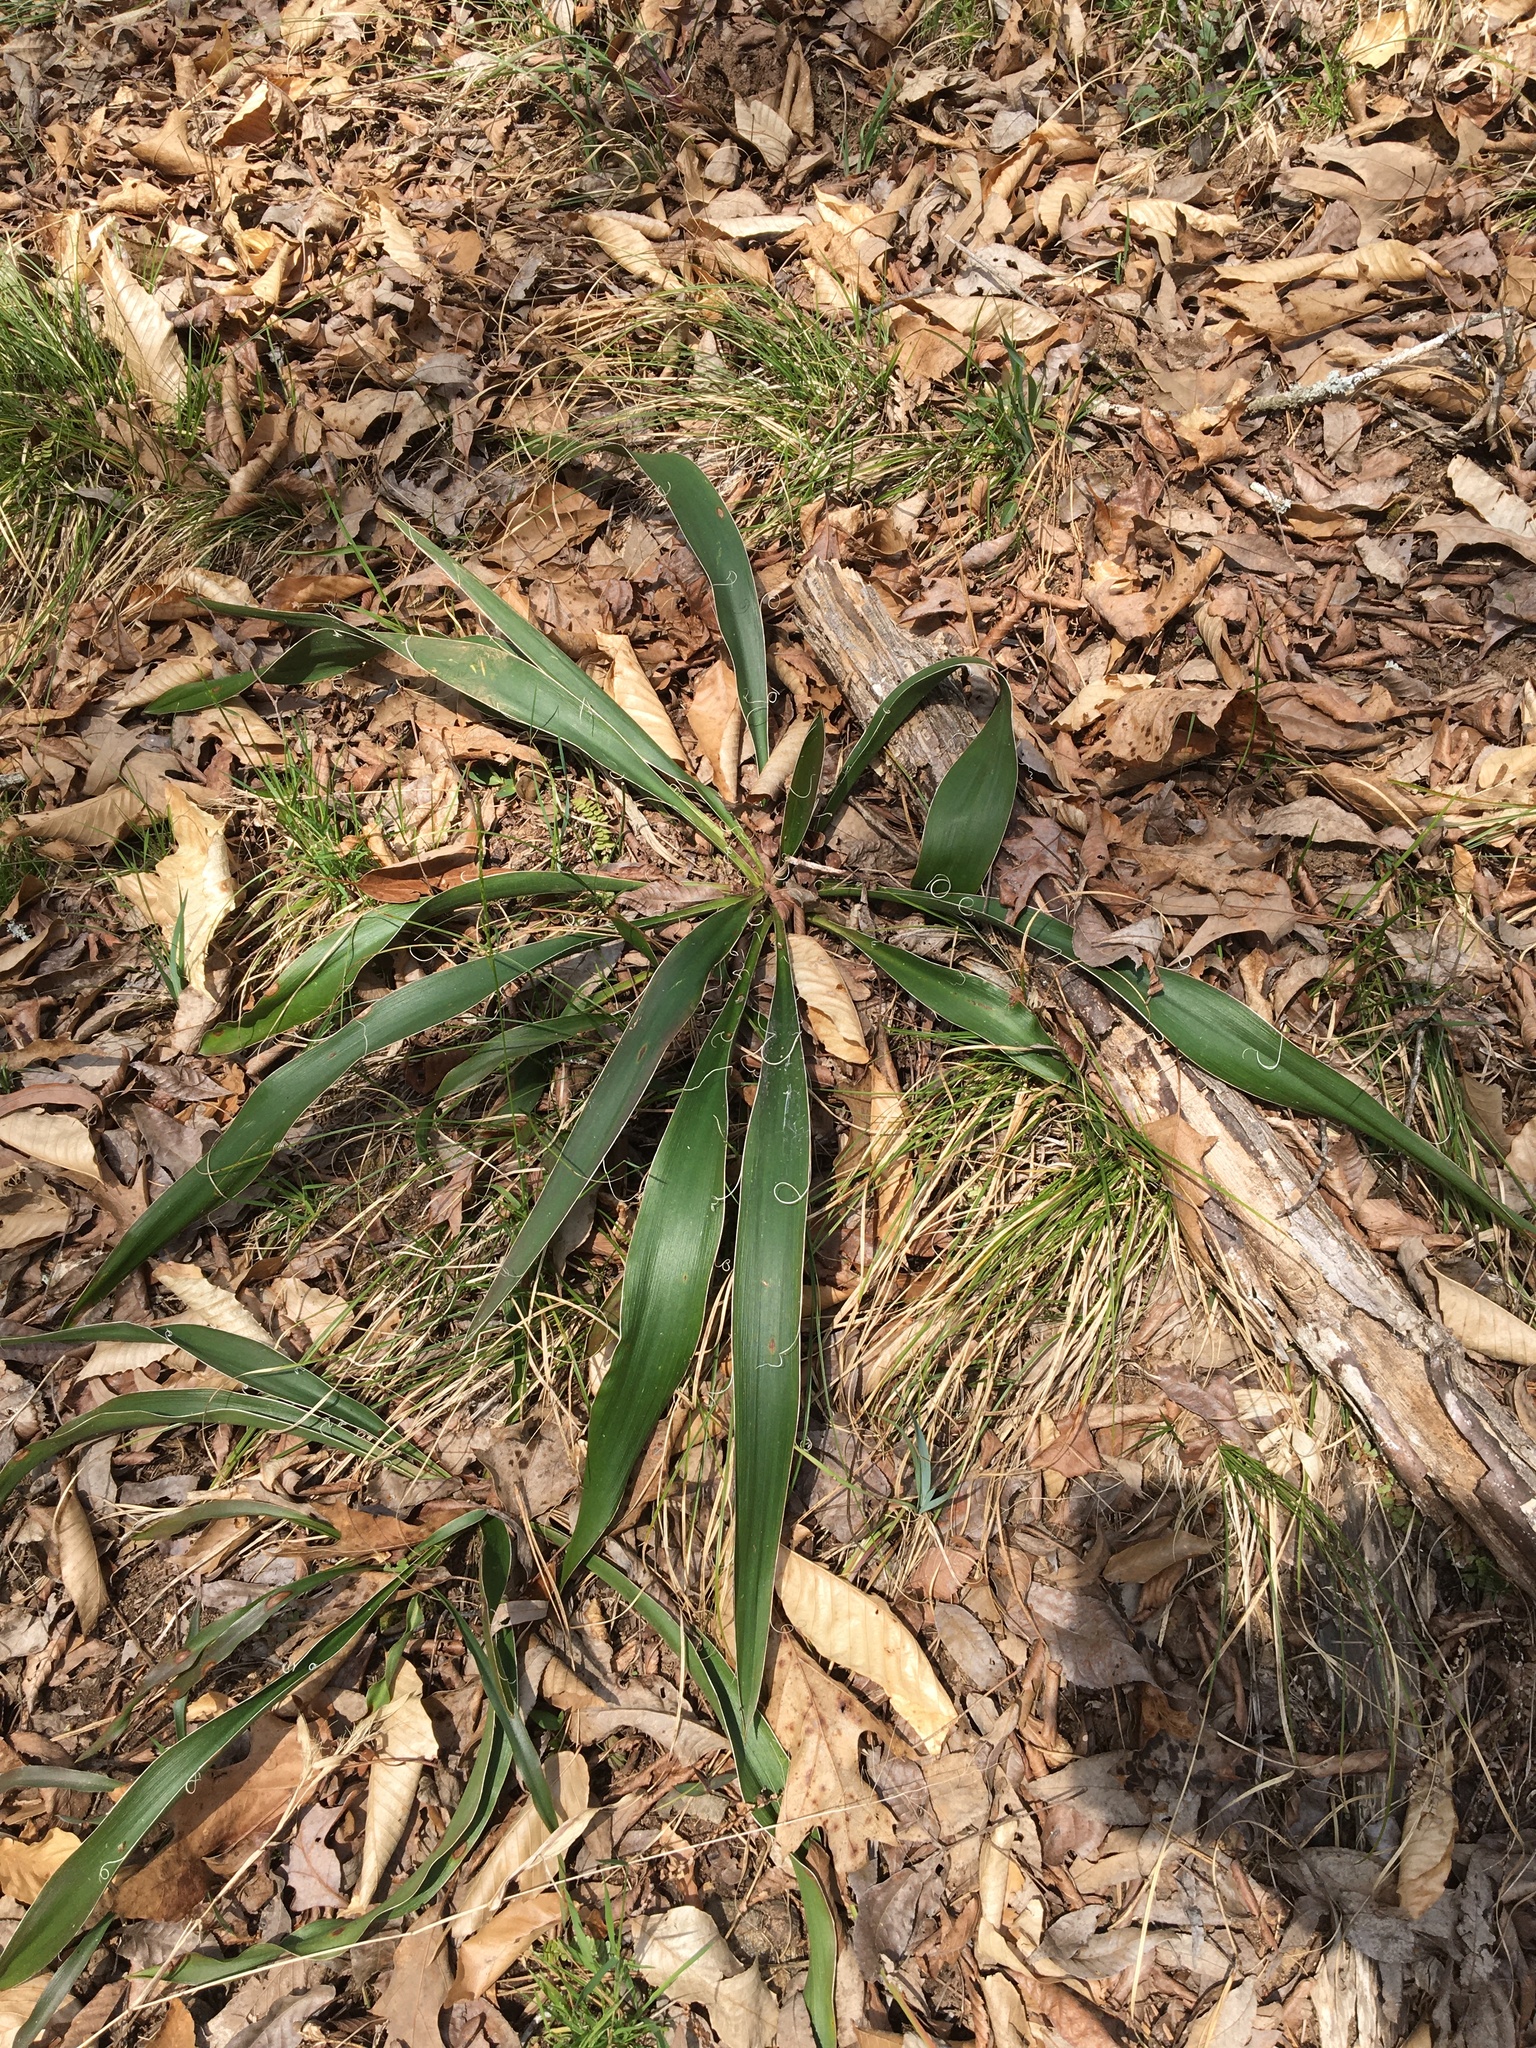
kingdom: Plantae
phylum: Tracheophyta
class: Liliopsida
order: Asparagales
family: Asparagaceae
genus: Yucca
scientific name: Yucca flaccida
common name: Adam's-needle
